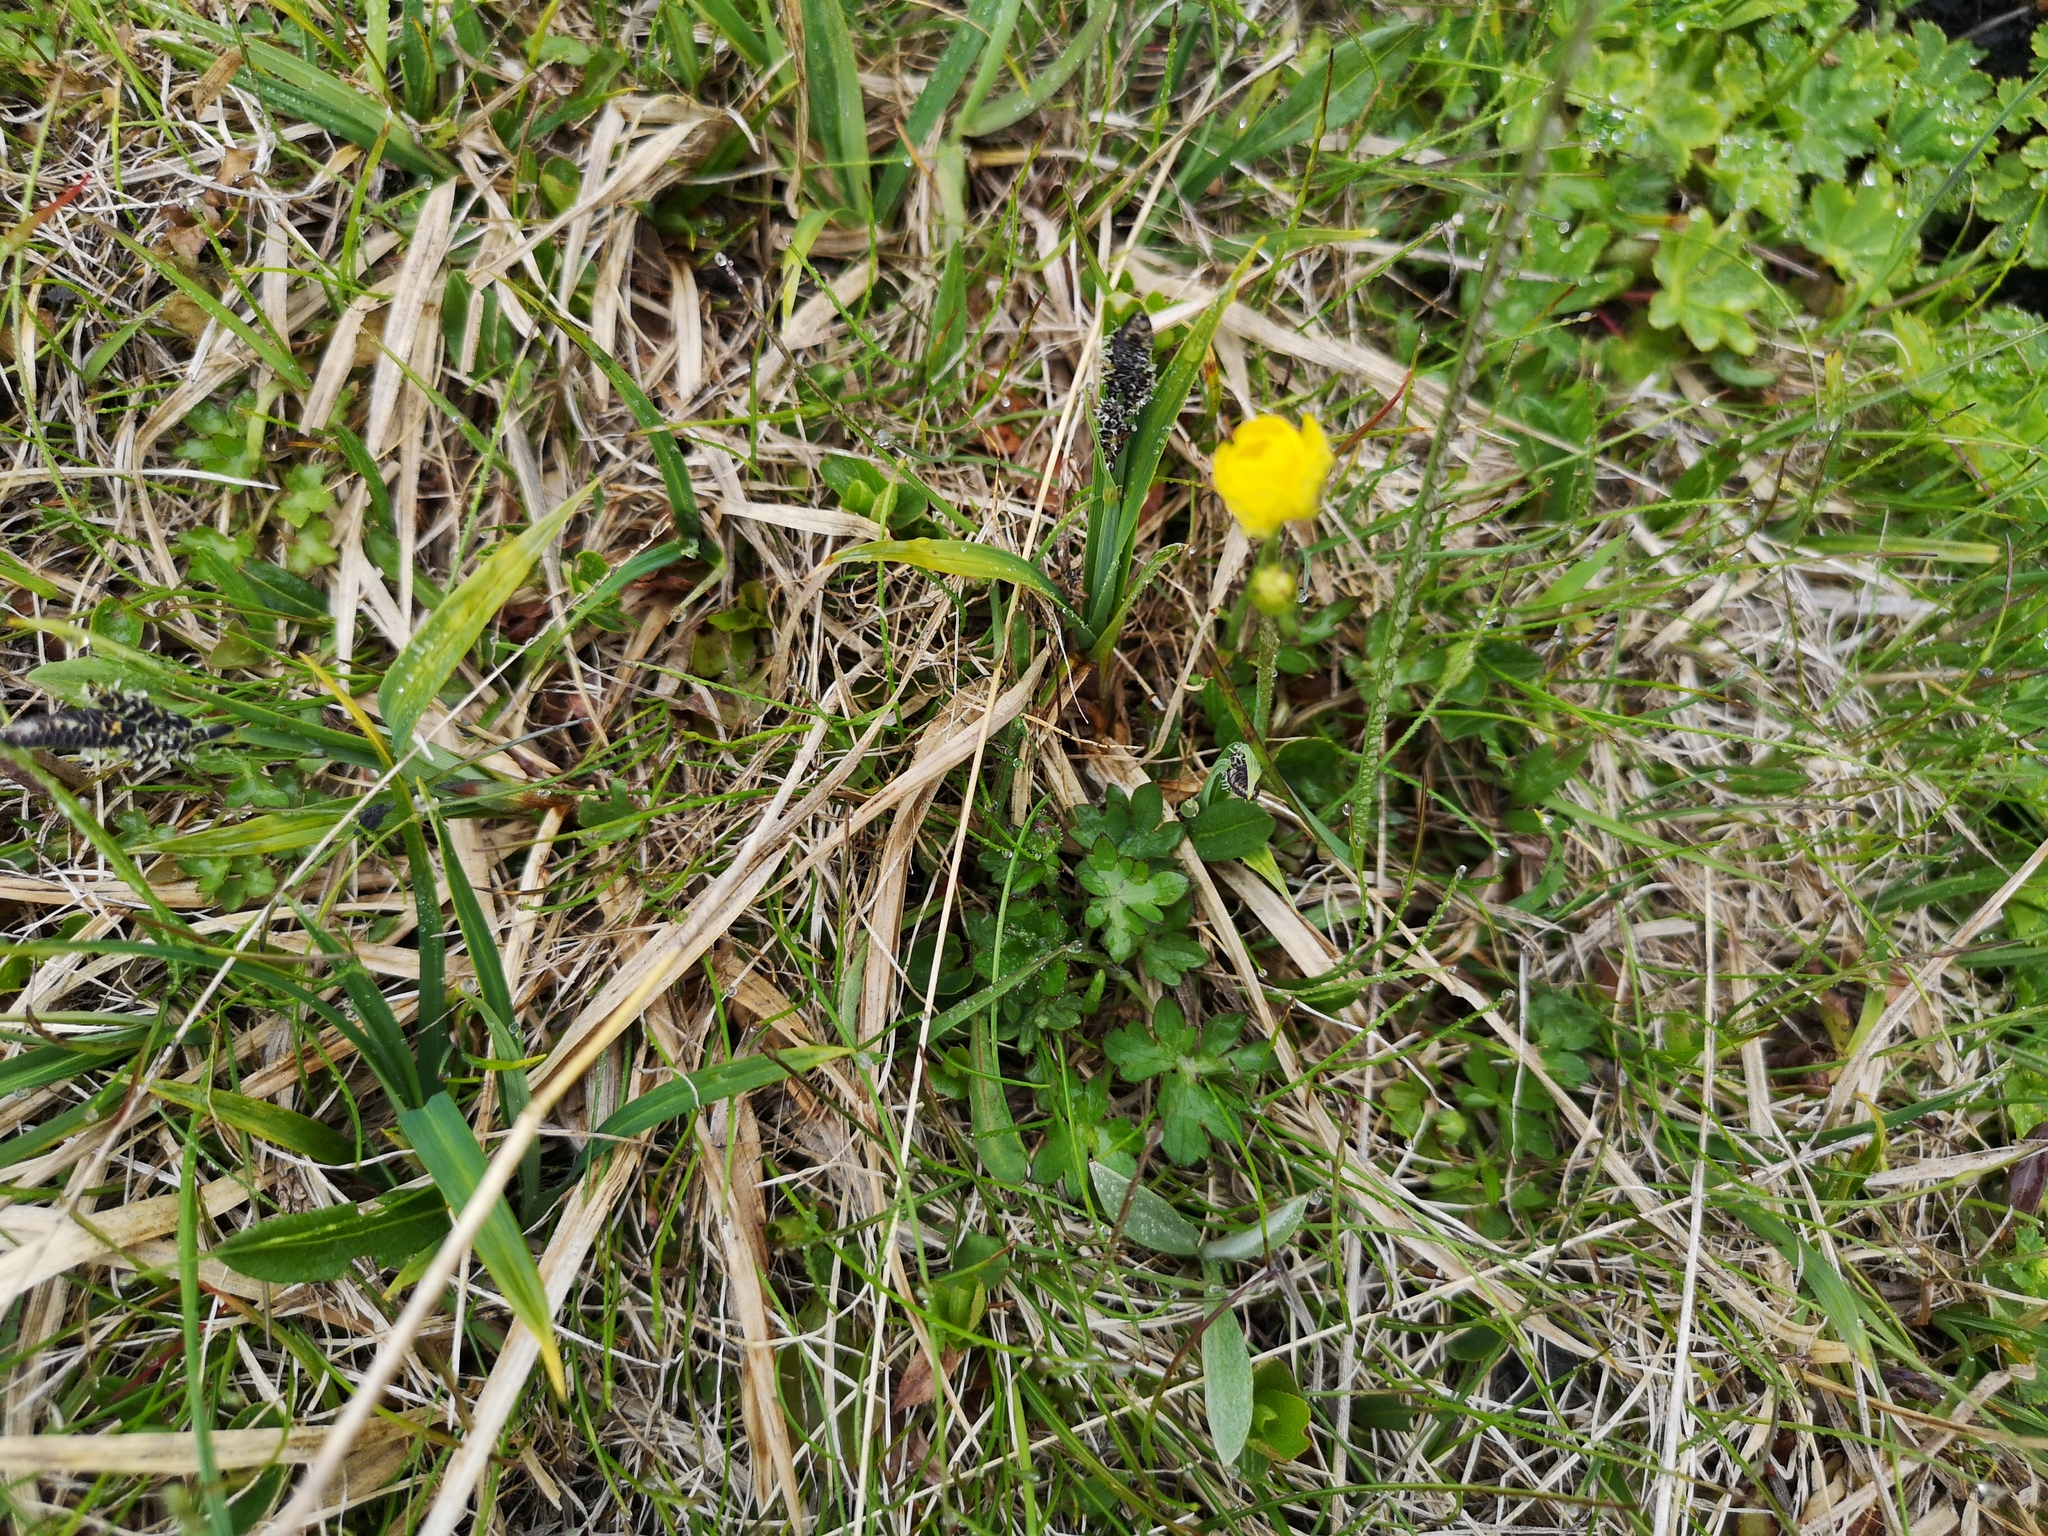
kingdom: Plantae
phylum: Tracheophyta
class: Magnoliopsida
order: Ranunculales
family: Ranunculaceae
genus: Ranunculus
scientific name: Ranunculus nivalis
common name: Snow buttercup
